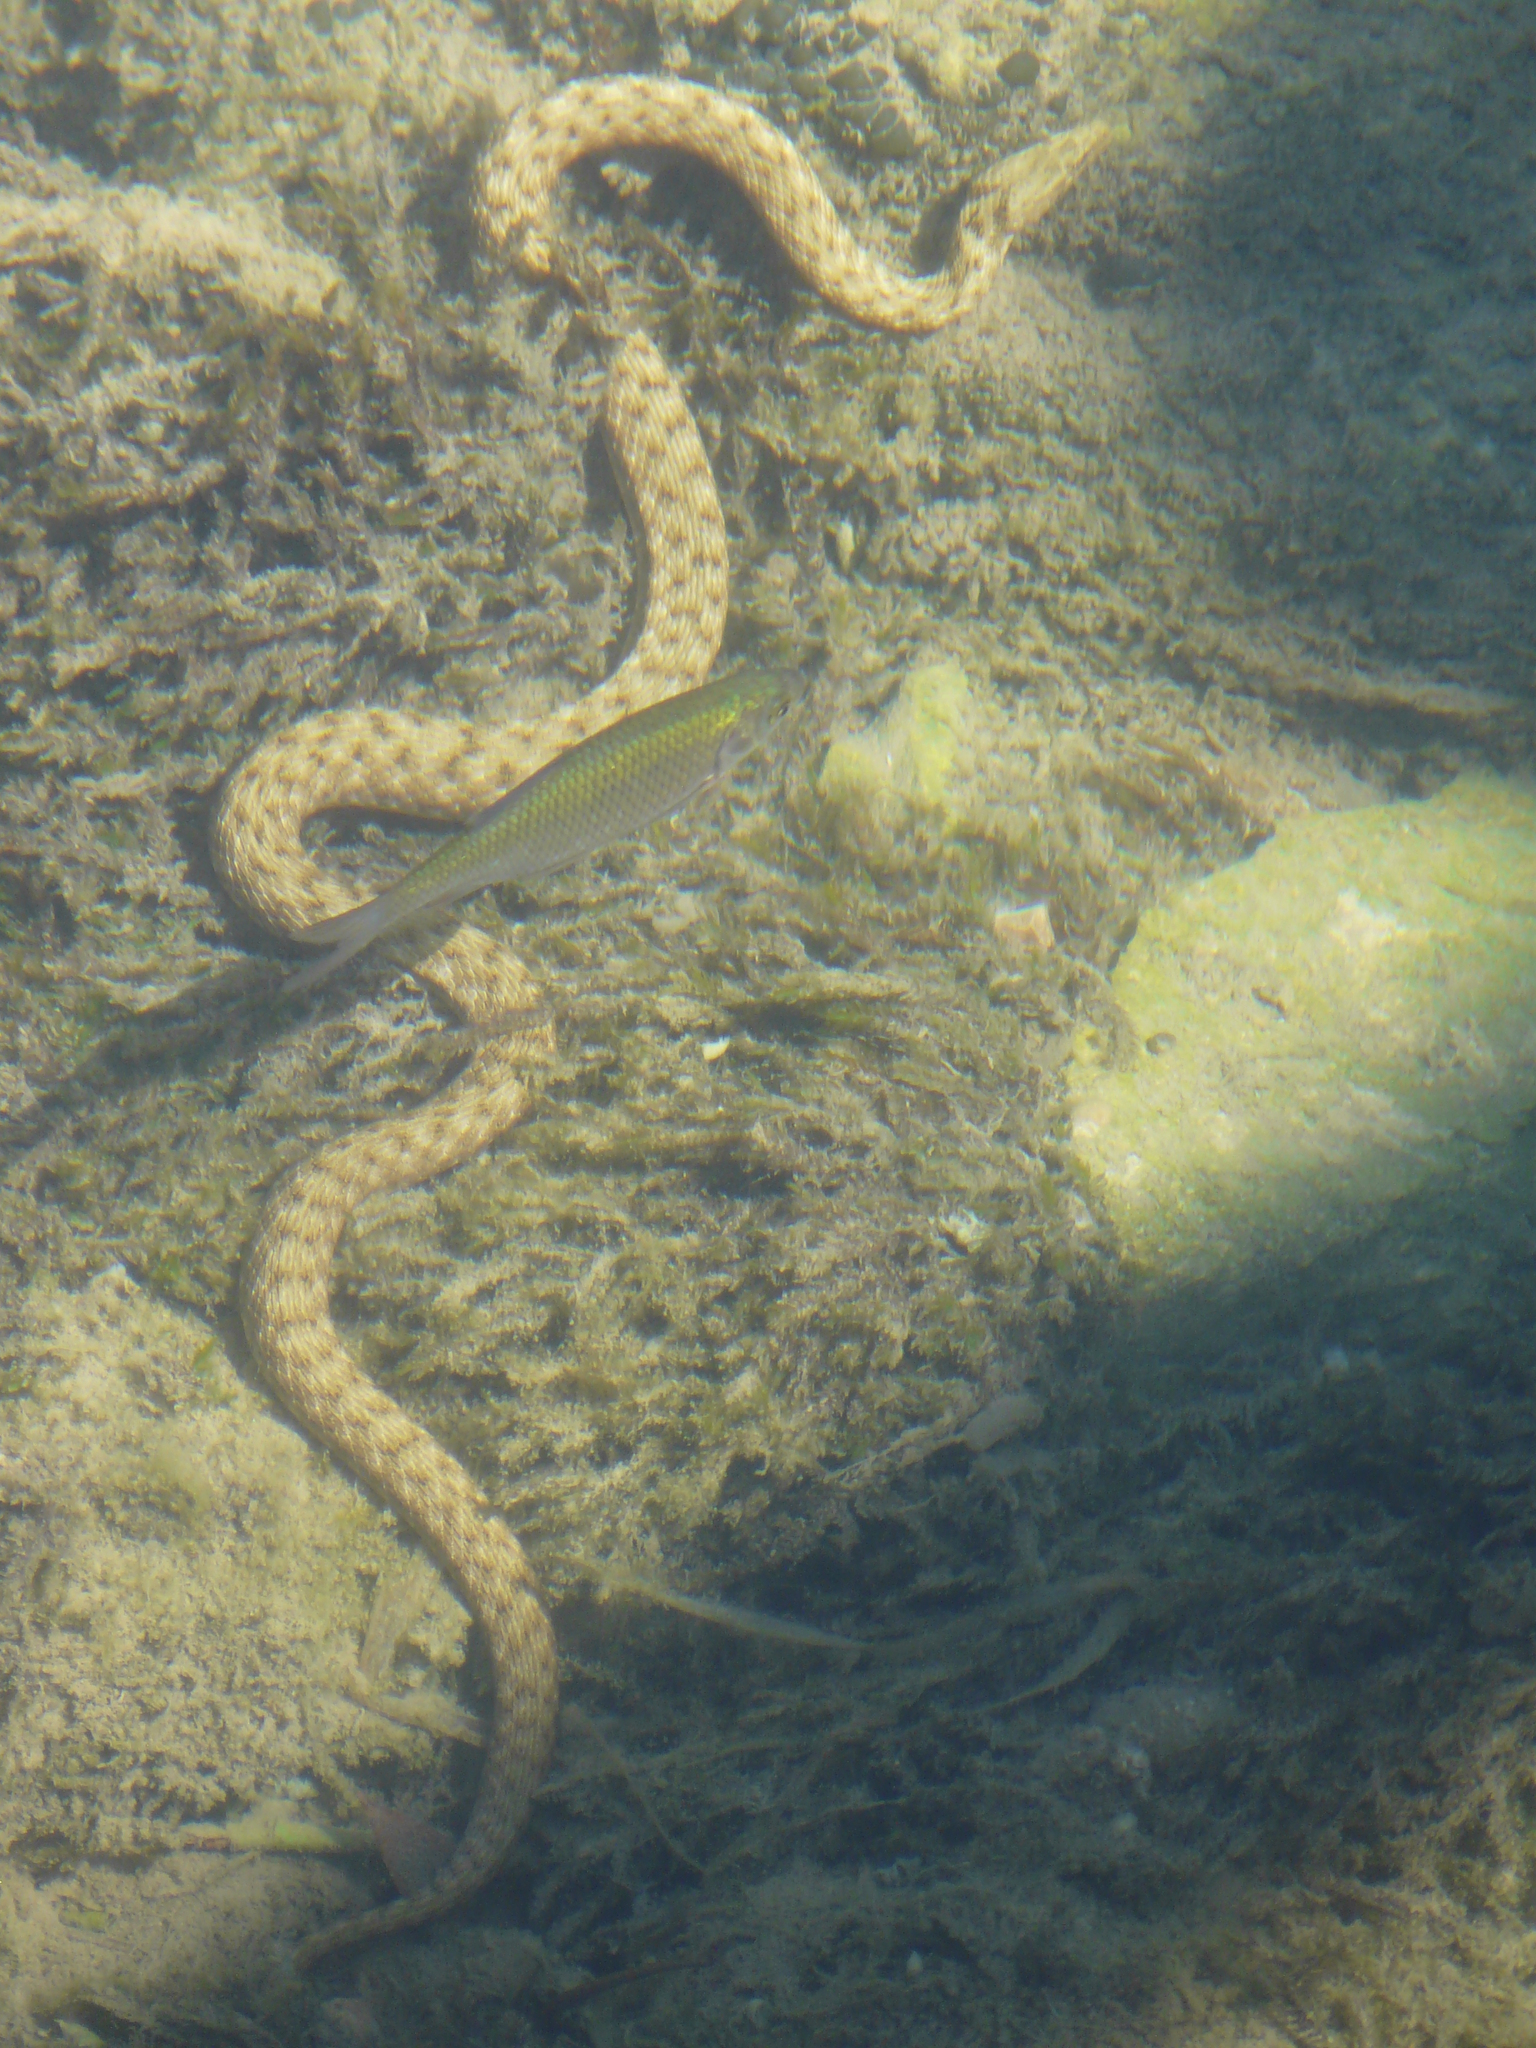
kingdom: Animalia
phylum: Chordata
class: Squamata
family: Colubridae
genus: Natrix
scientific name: Natrix tessellata
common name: Dice snake
